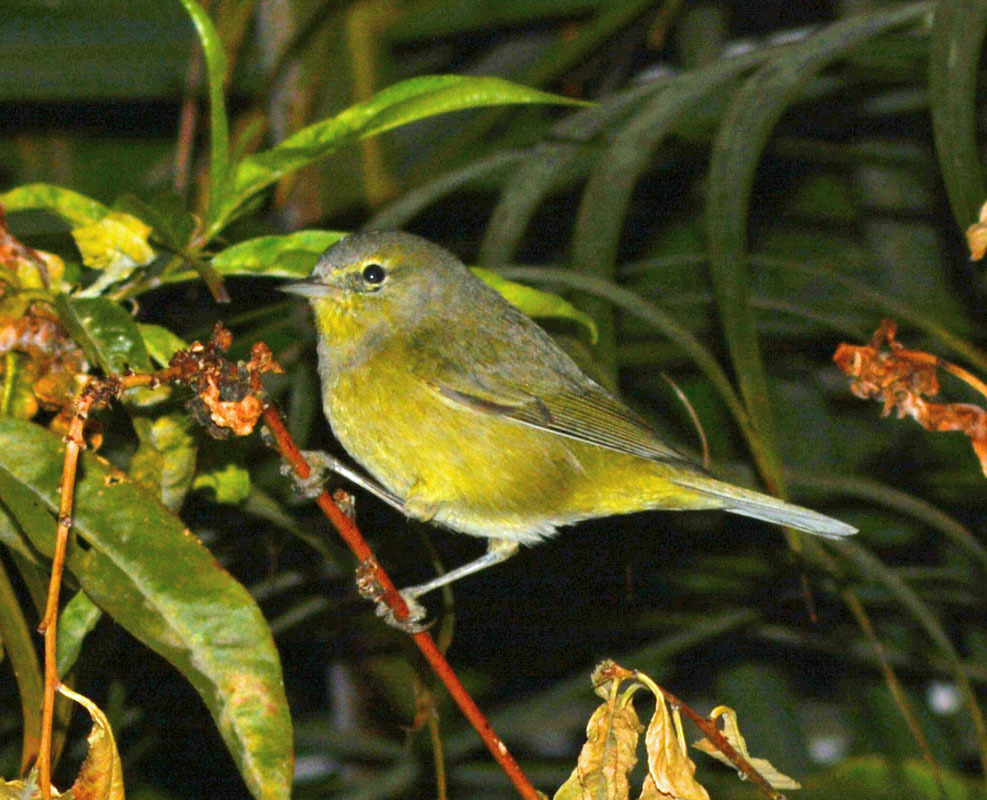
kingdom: Animalia
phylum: Chordata
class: Aves
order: Passeriformes
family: Parulidae
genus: Leiothlypis
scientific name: Leiothlypis celata
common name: Orange-crowned warbler
